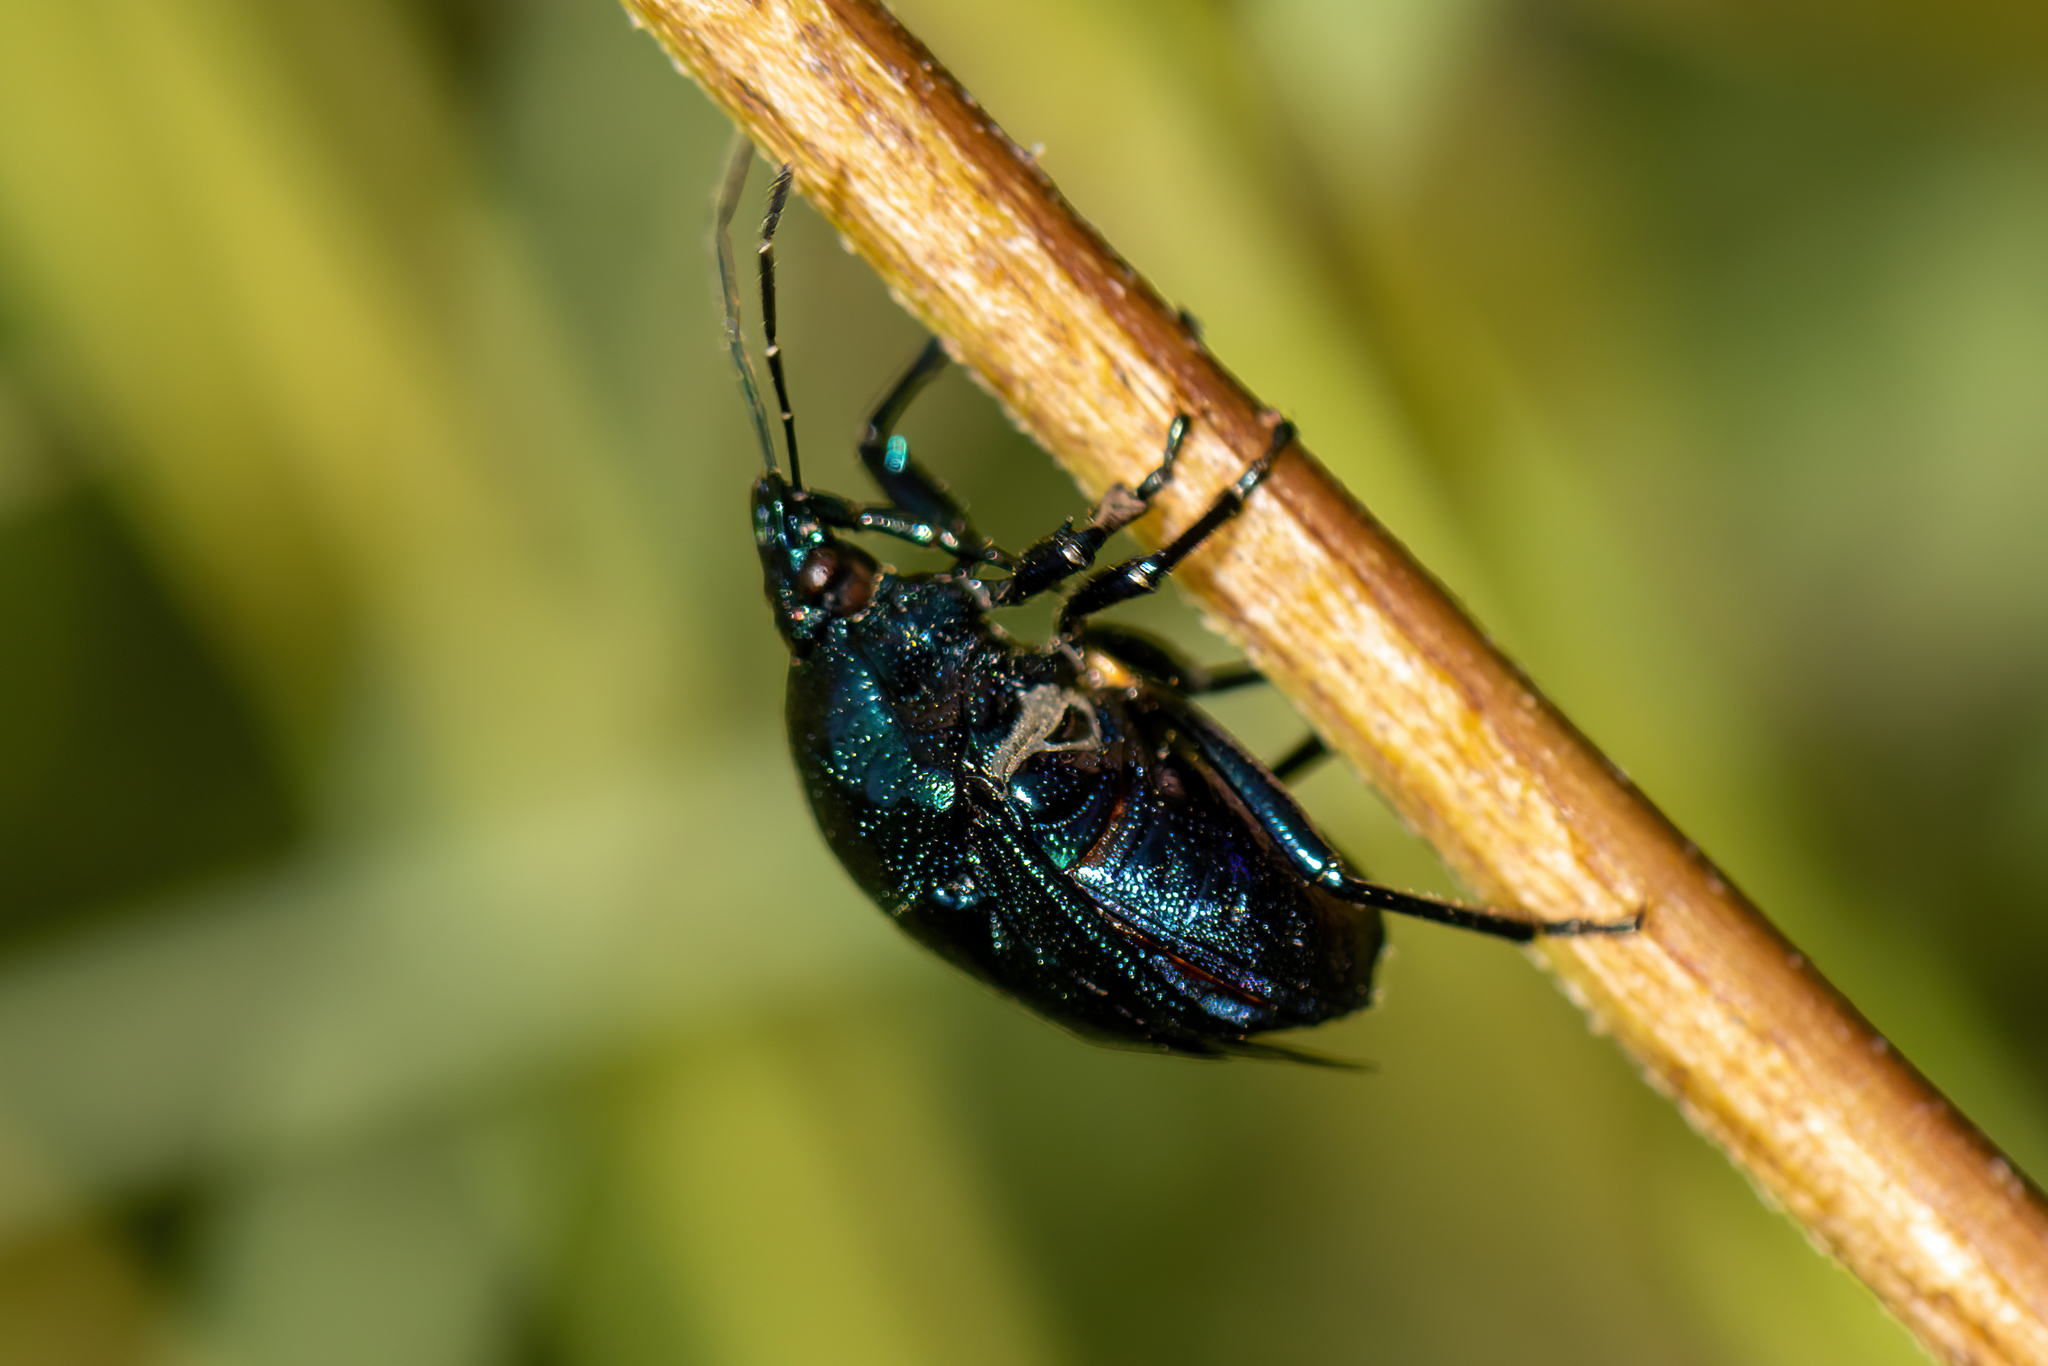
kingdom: Animalia
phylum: Arthropoda
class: Insecta
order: Hemiptera
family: Pentatomidae
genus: Stiretrus
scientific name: Stiretrus anchorago
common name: Anchor stink bug
